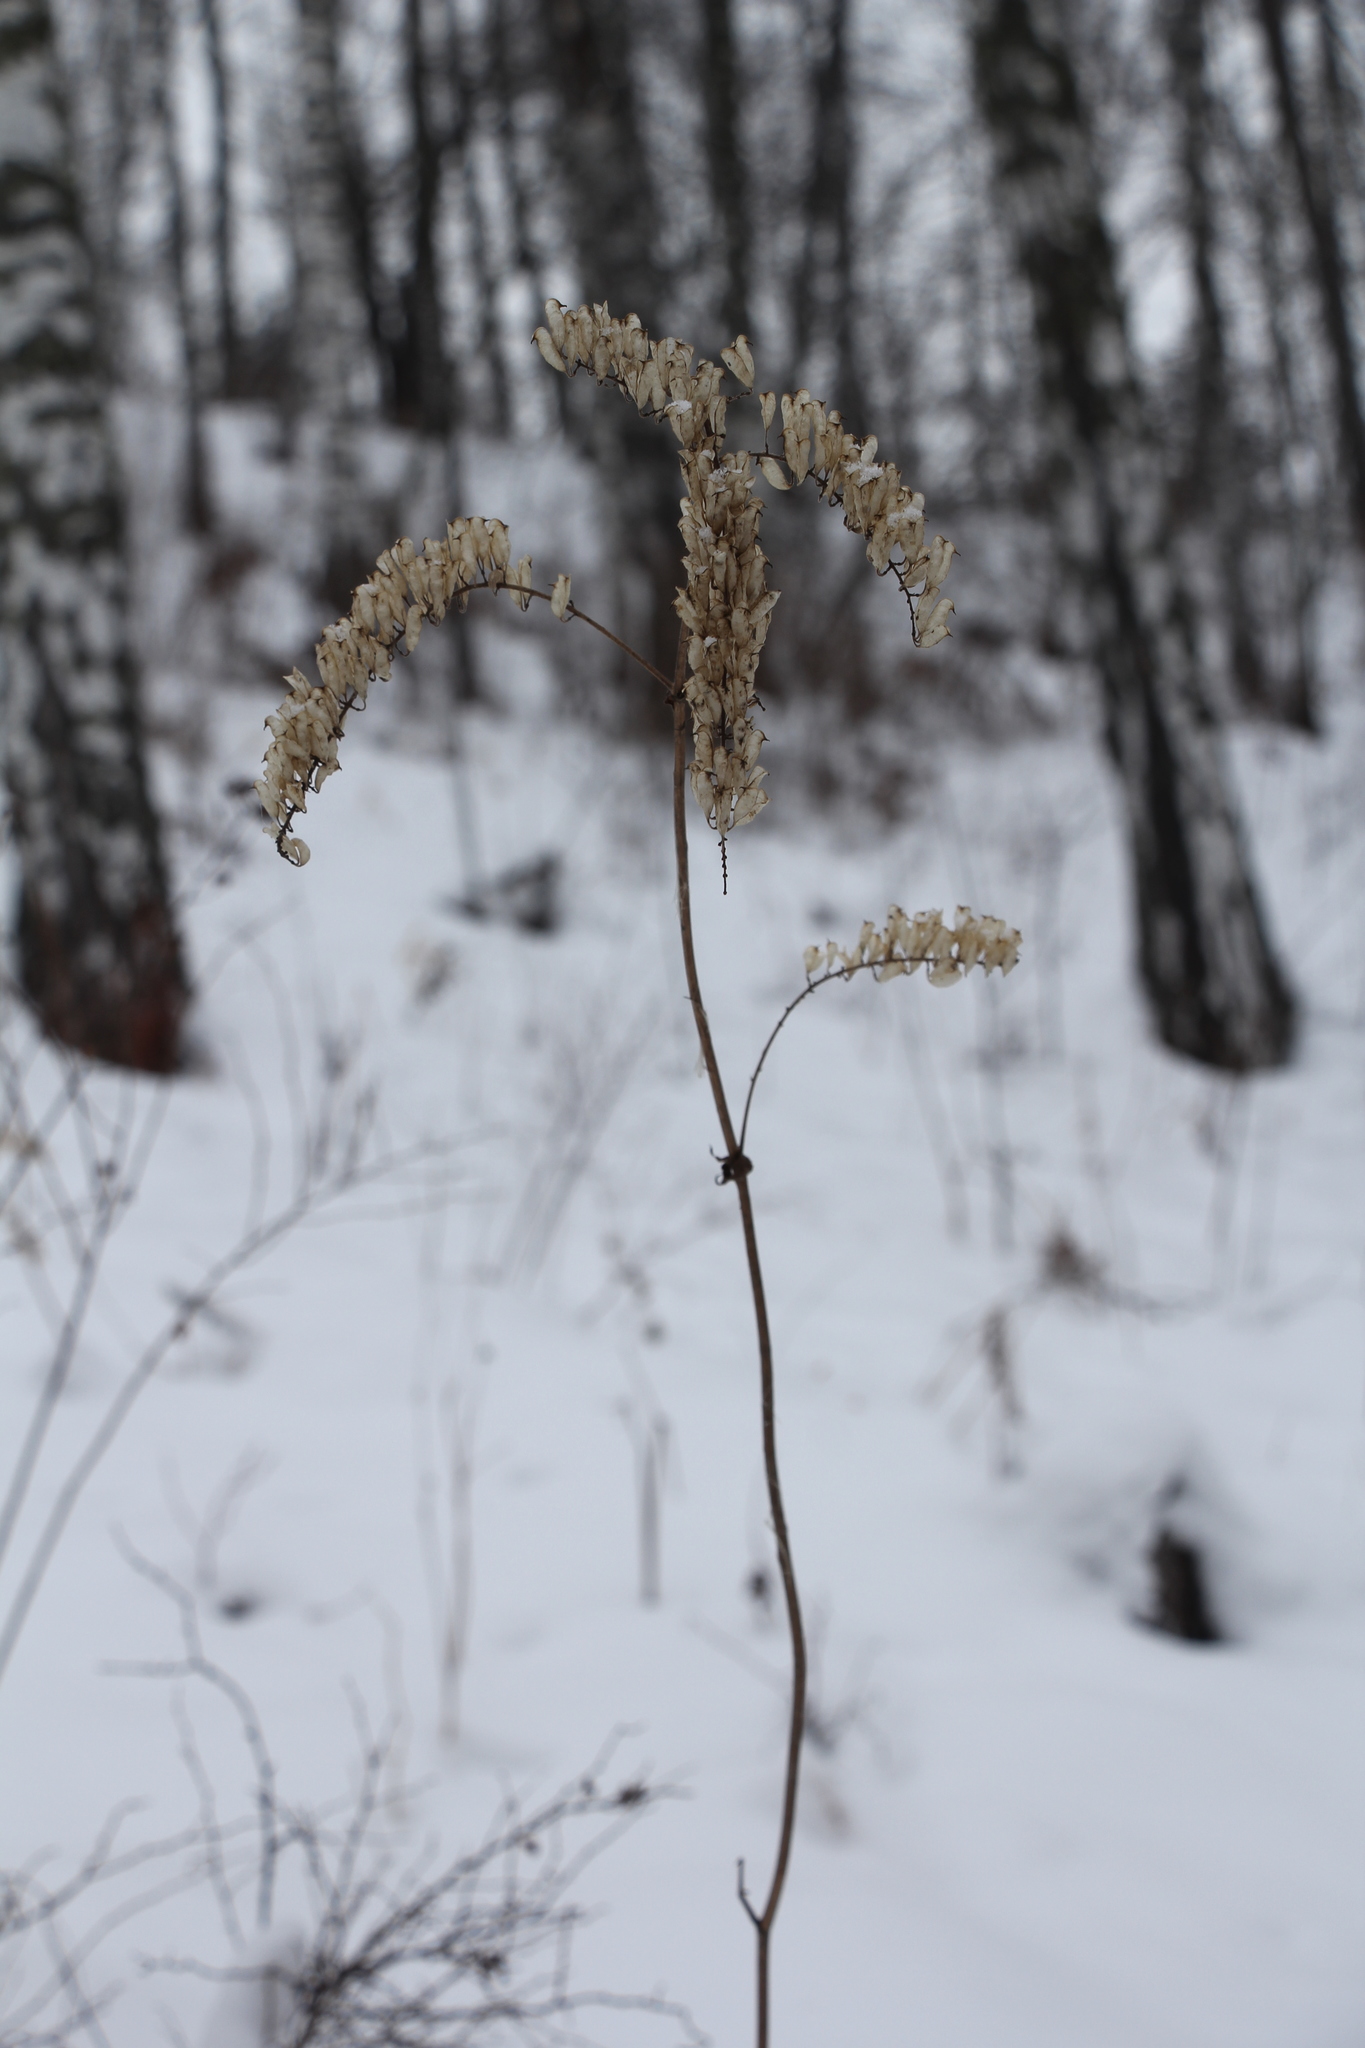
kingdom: Plantae
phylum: Tracheophyta
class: Magnoliopsida
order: Ranunculales
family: Ranunculaceae
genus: Actaea
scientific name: Actaea cimicifuga
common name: Chinese cimicifuga
